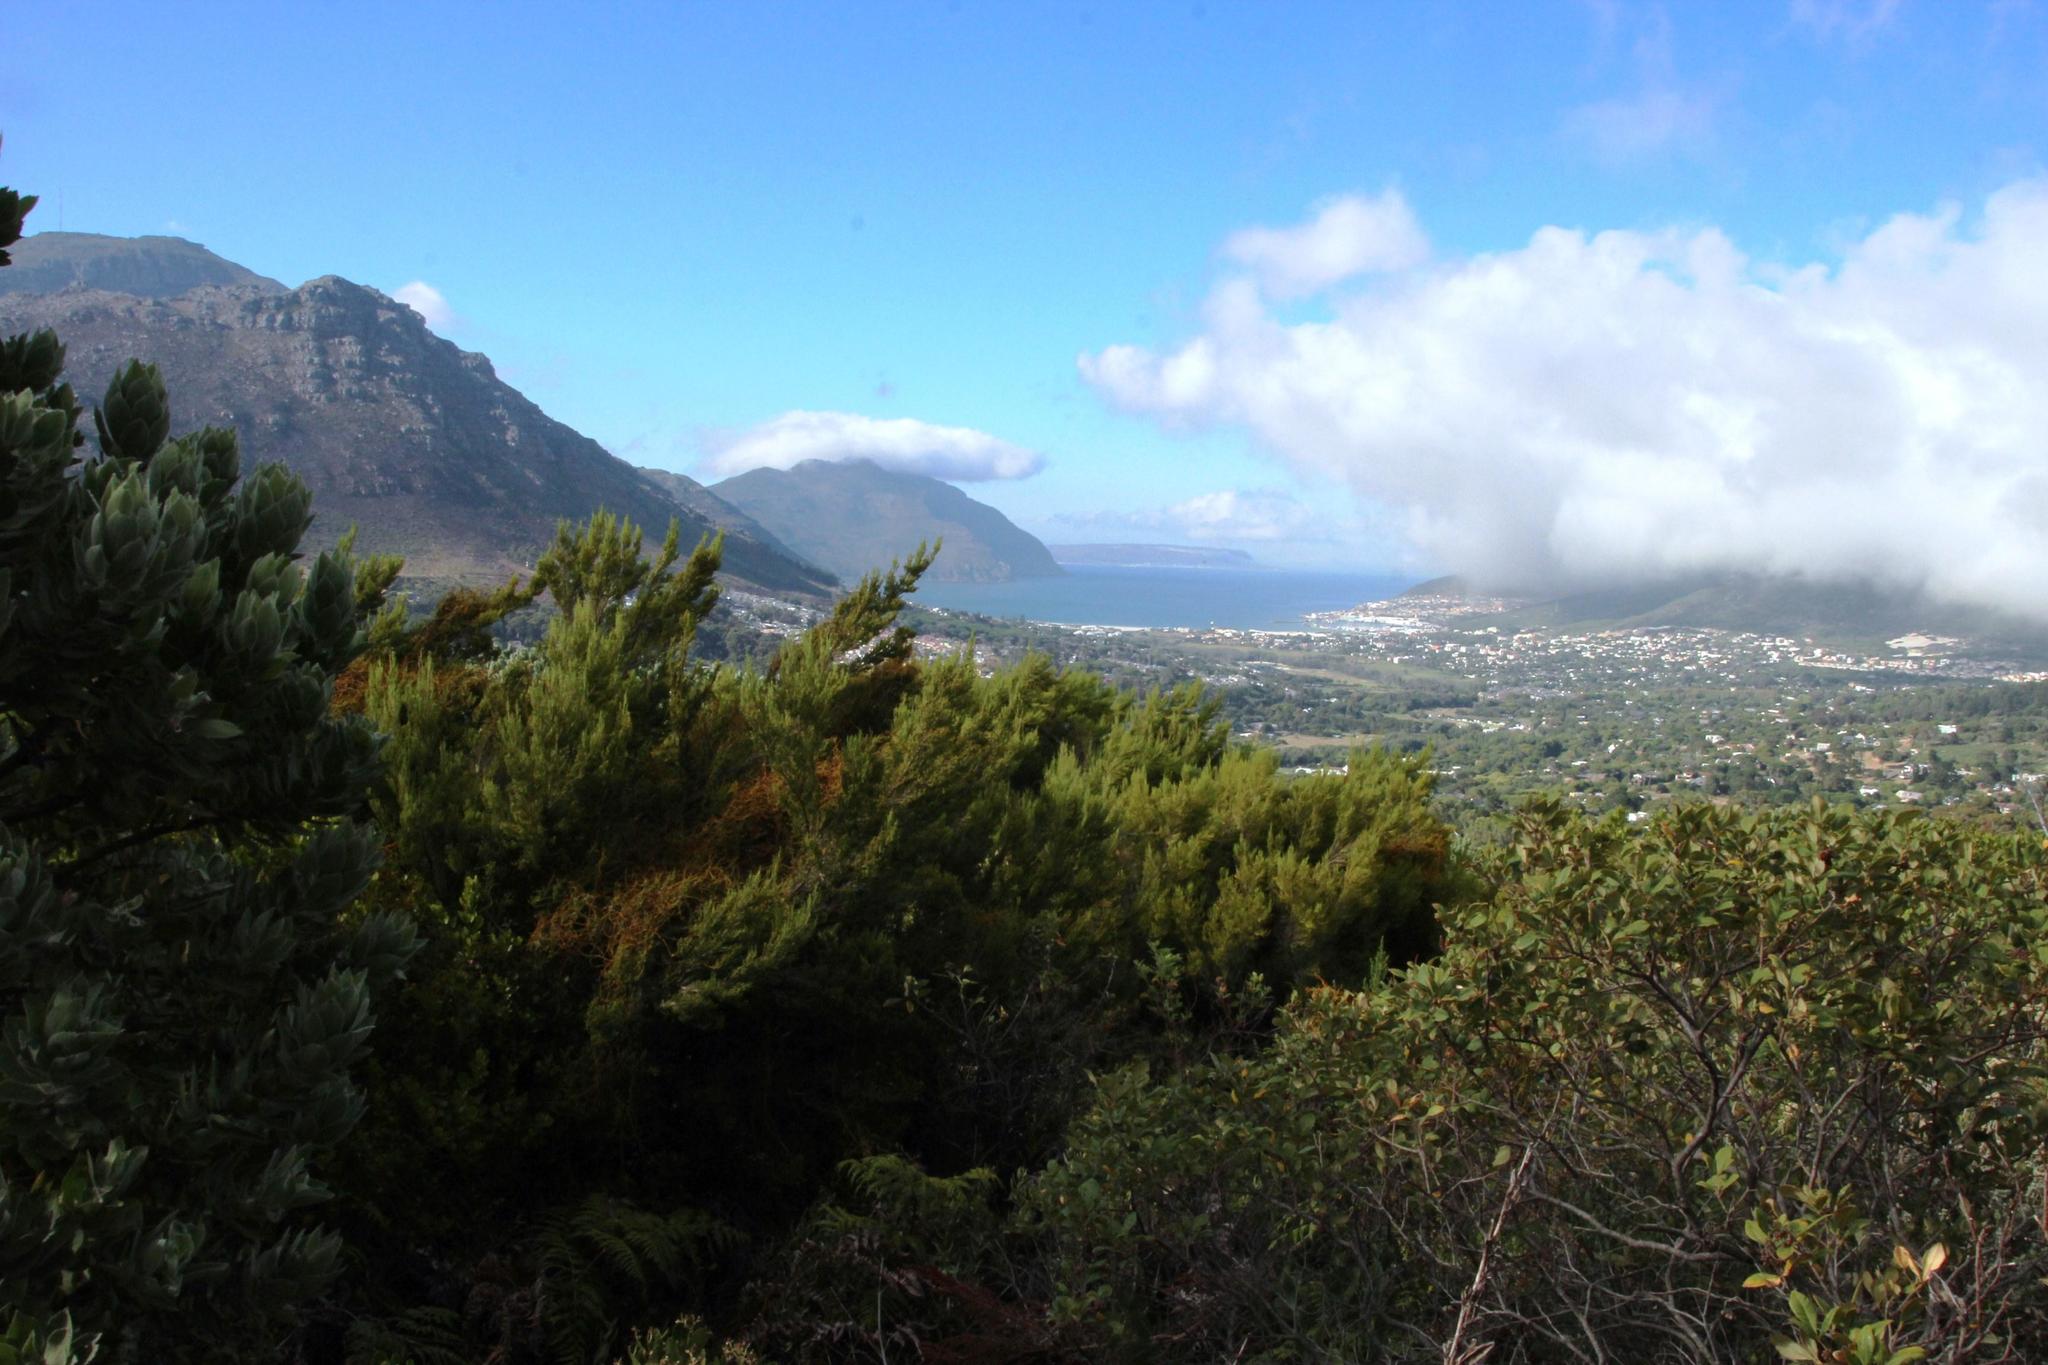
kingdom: Plantae
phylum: Tracheophyta
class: Magnoliopsida
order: Ericales
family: Ericaceae
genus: Erica
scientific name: Erica tristis
